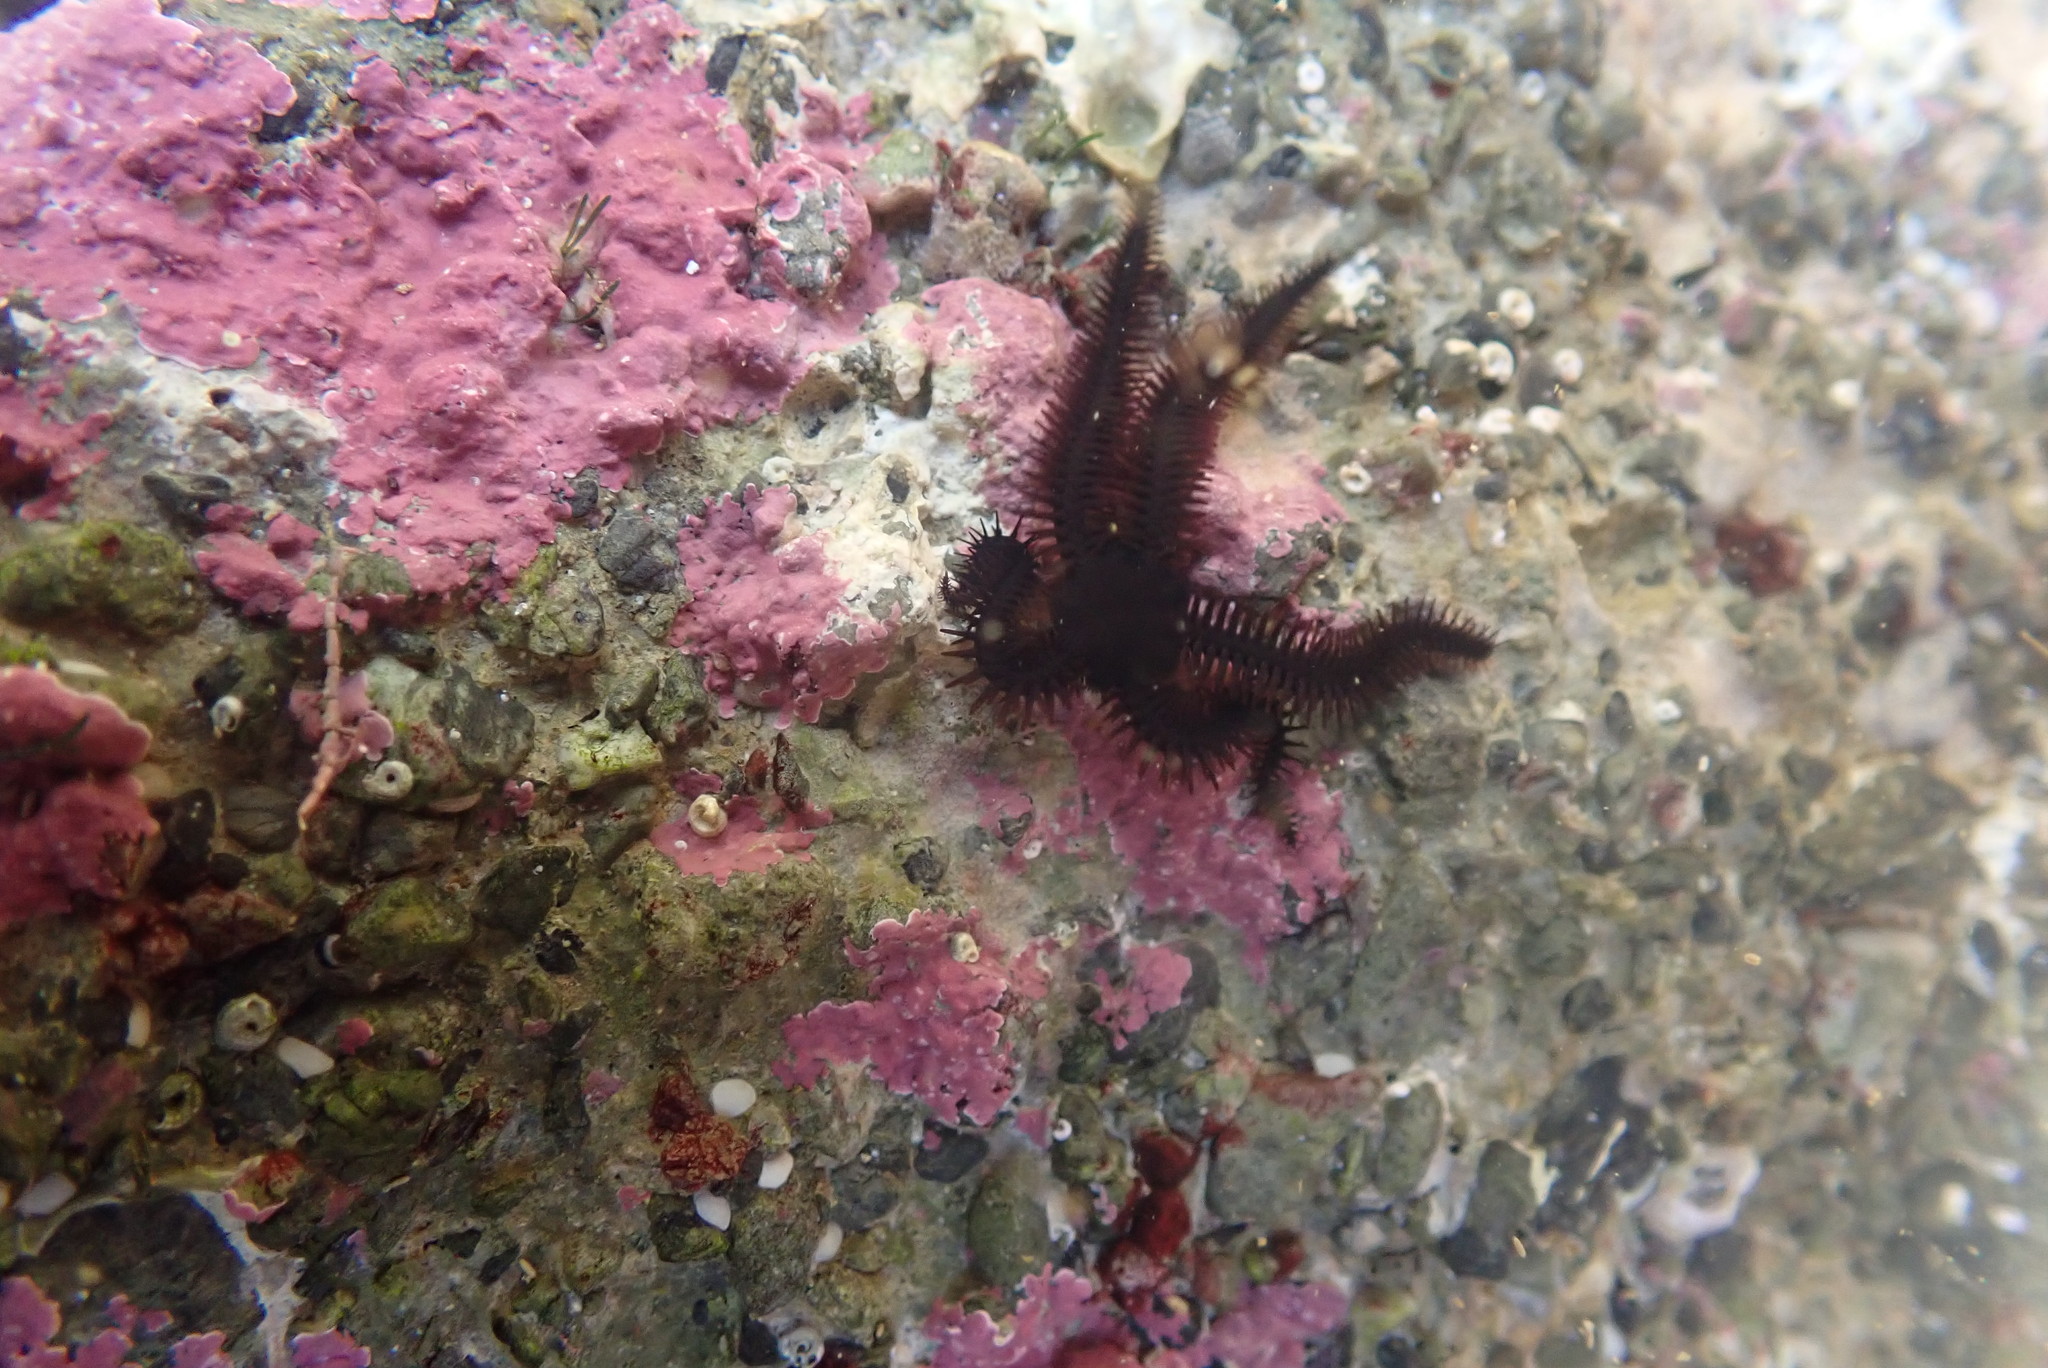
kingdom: Animalia
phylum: Echinodermata
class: Ophiuroidea
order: Ophiacanthida
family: Ophiopteridae
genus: Ophiopteris
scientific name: Ophiopteris antipodum
